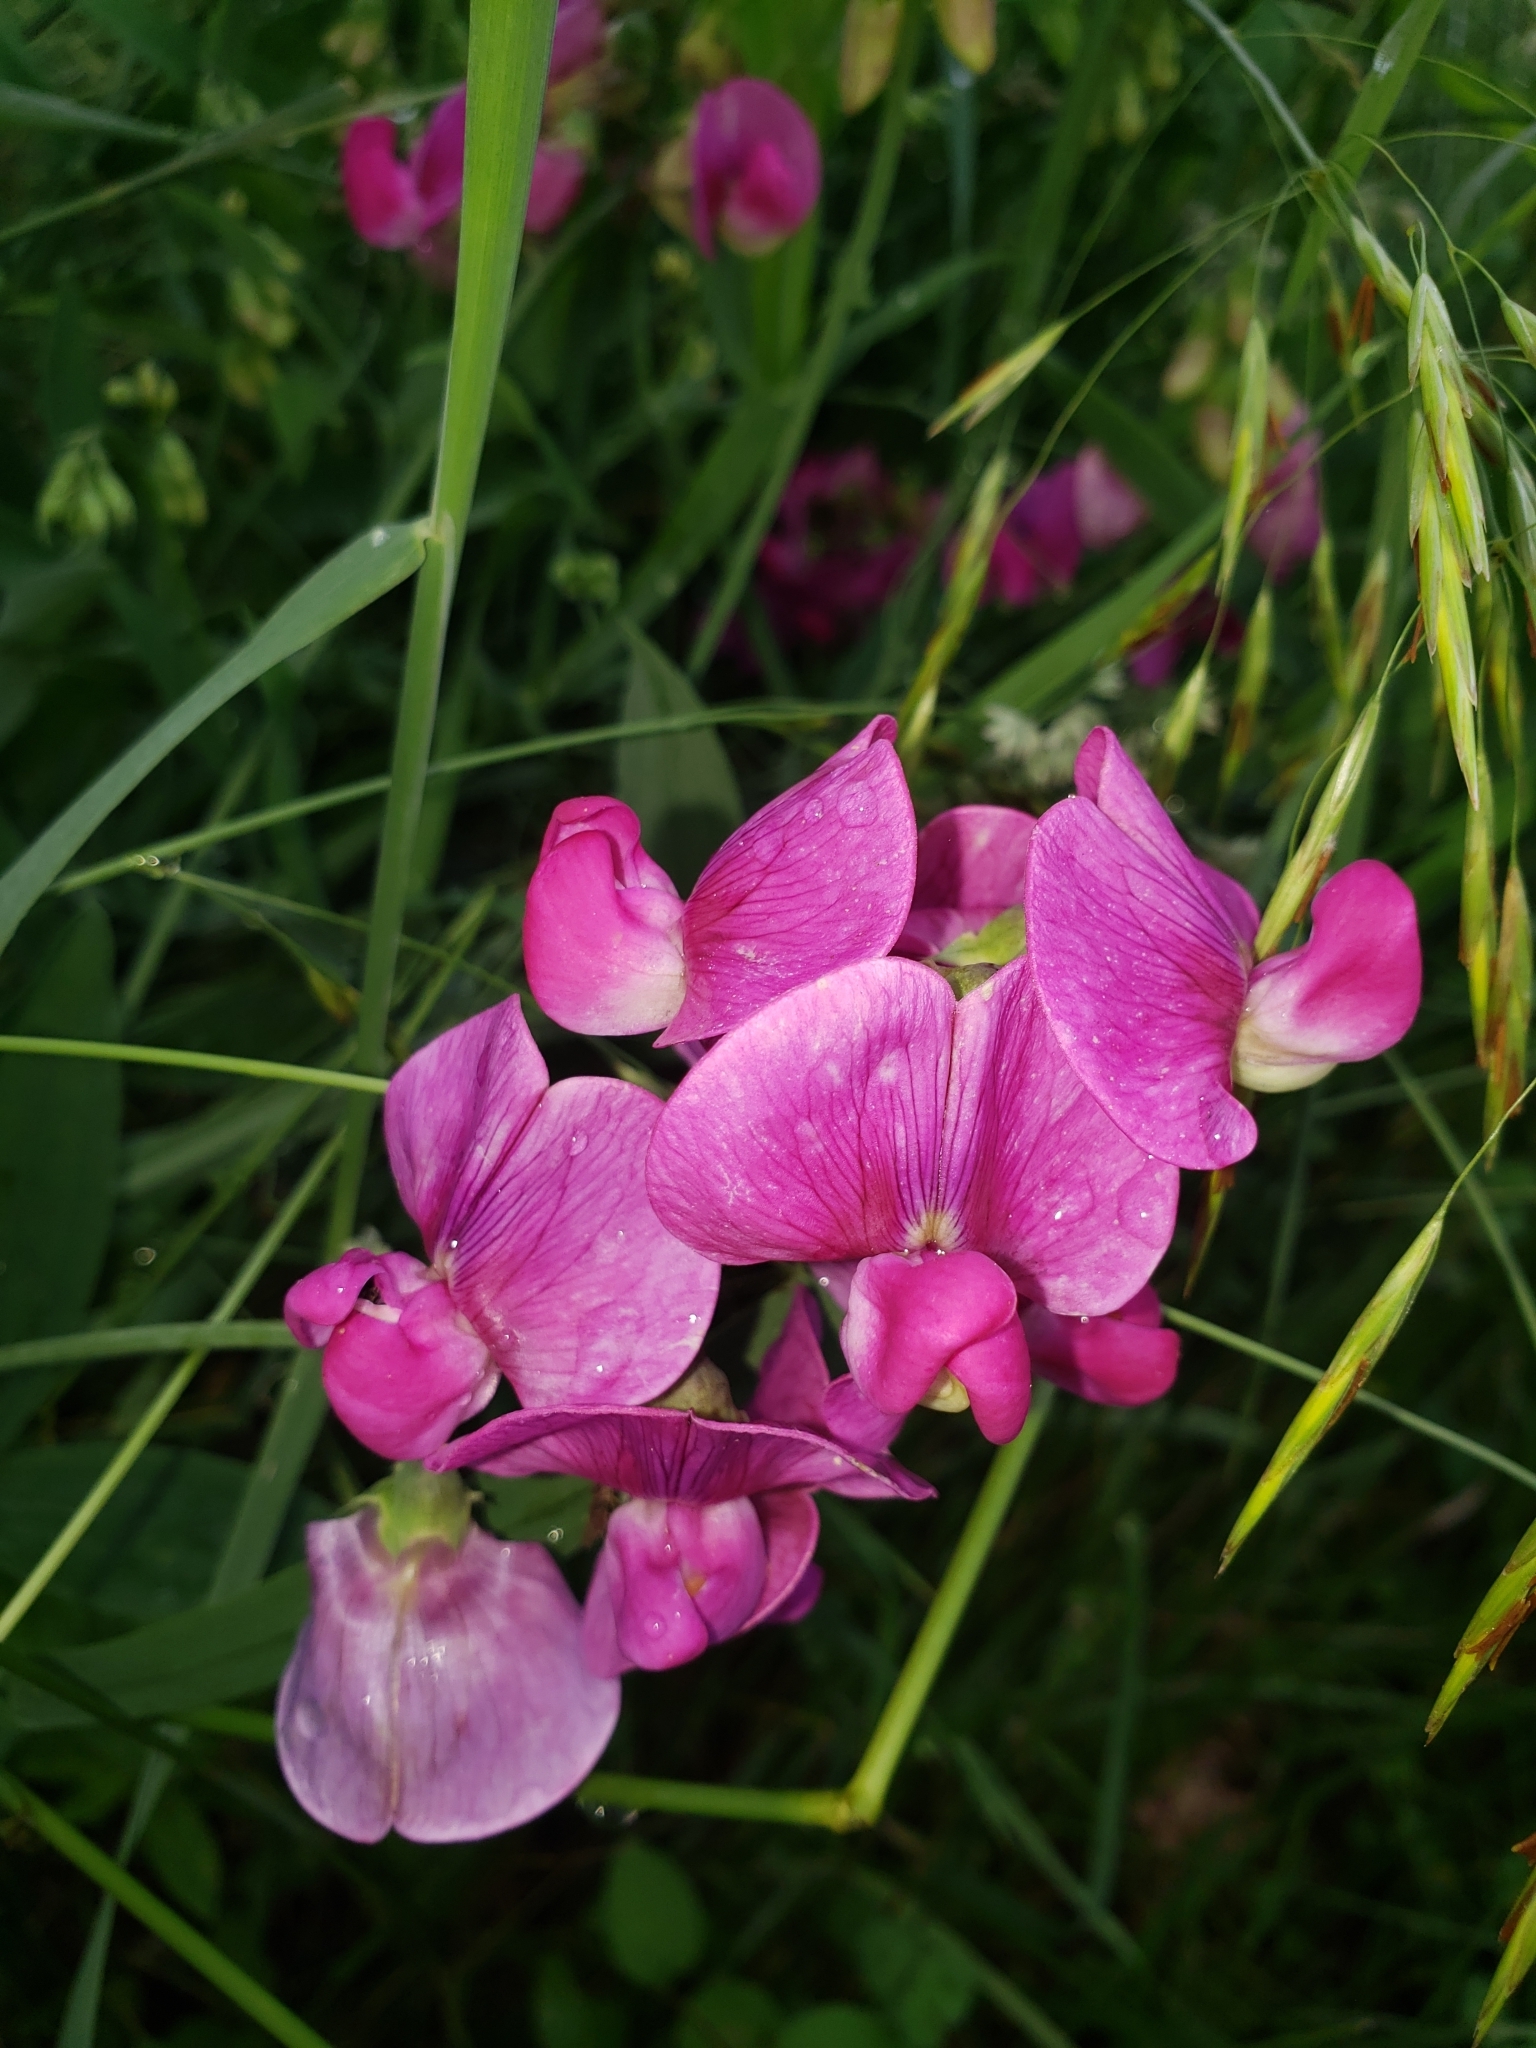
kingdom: Plantae
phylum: Tracheophyta
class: Magnoliopsida
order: Fabales
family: Fabaceae
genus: Lathyrus
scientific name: Lathyrus latifolius
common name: Perennial pea
